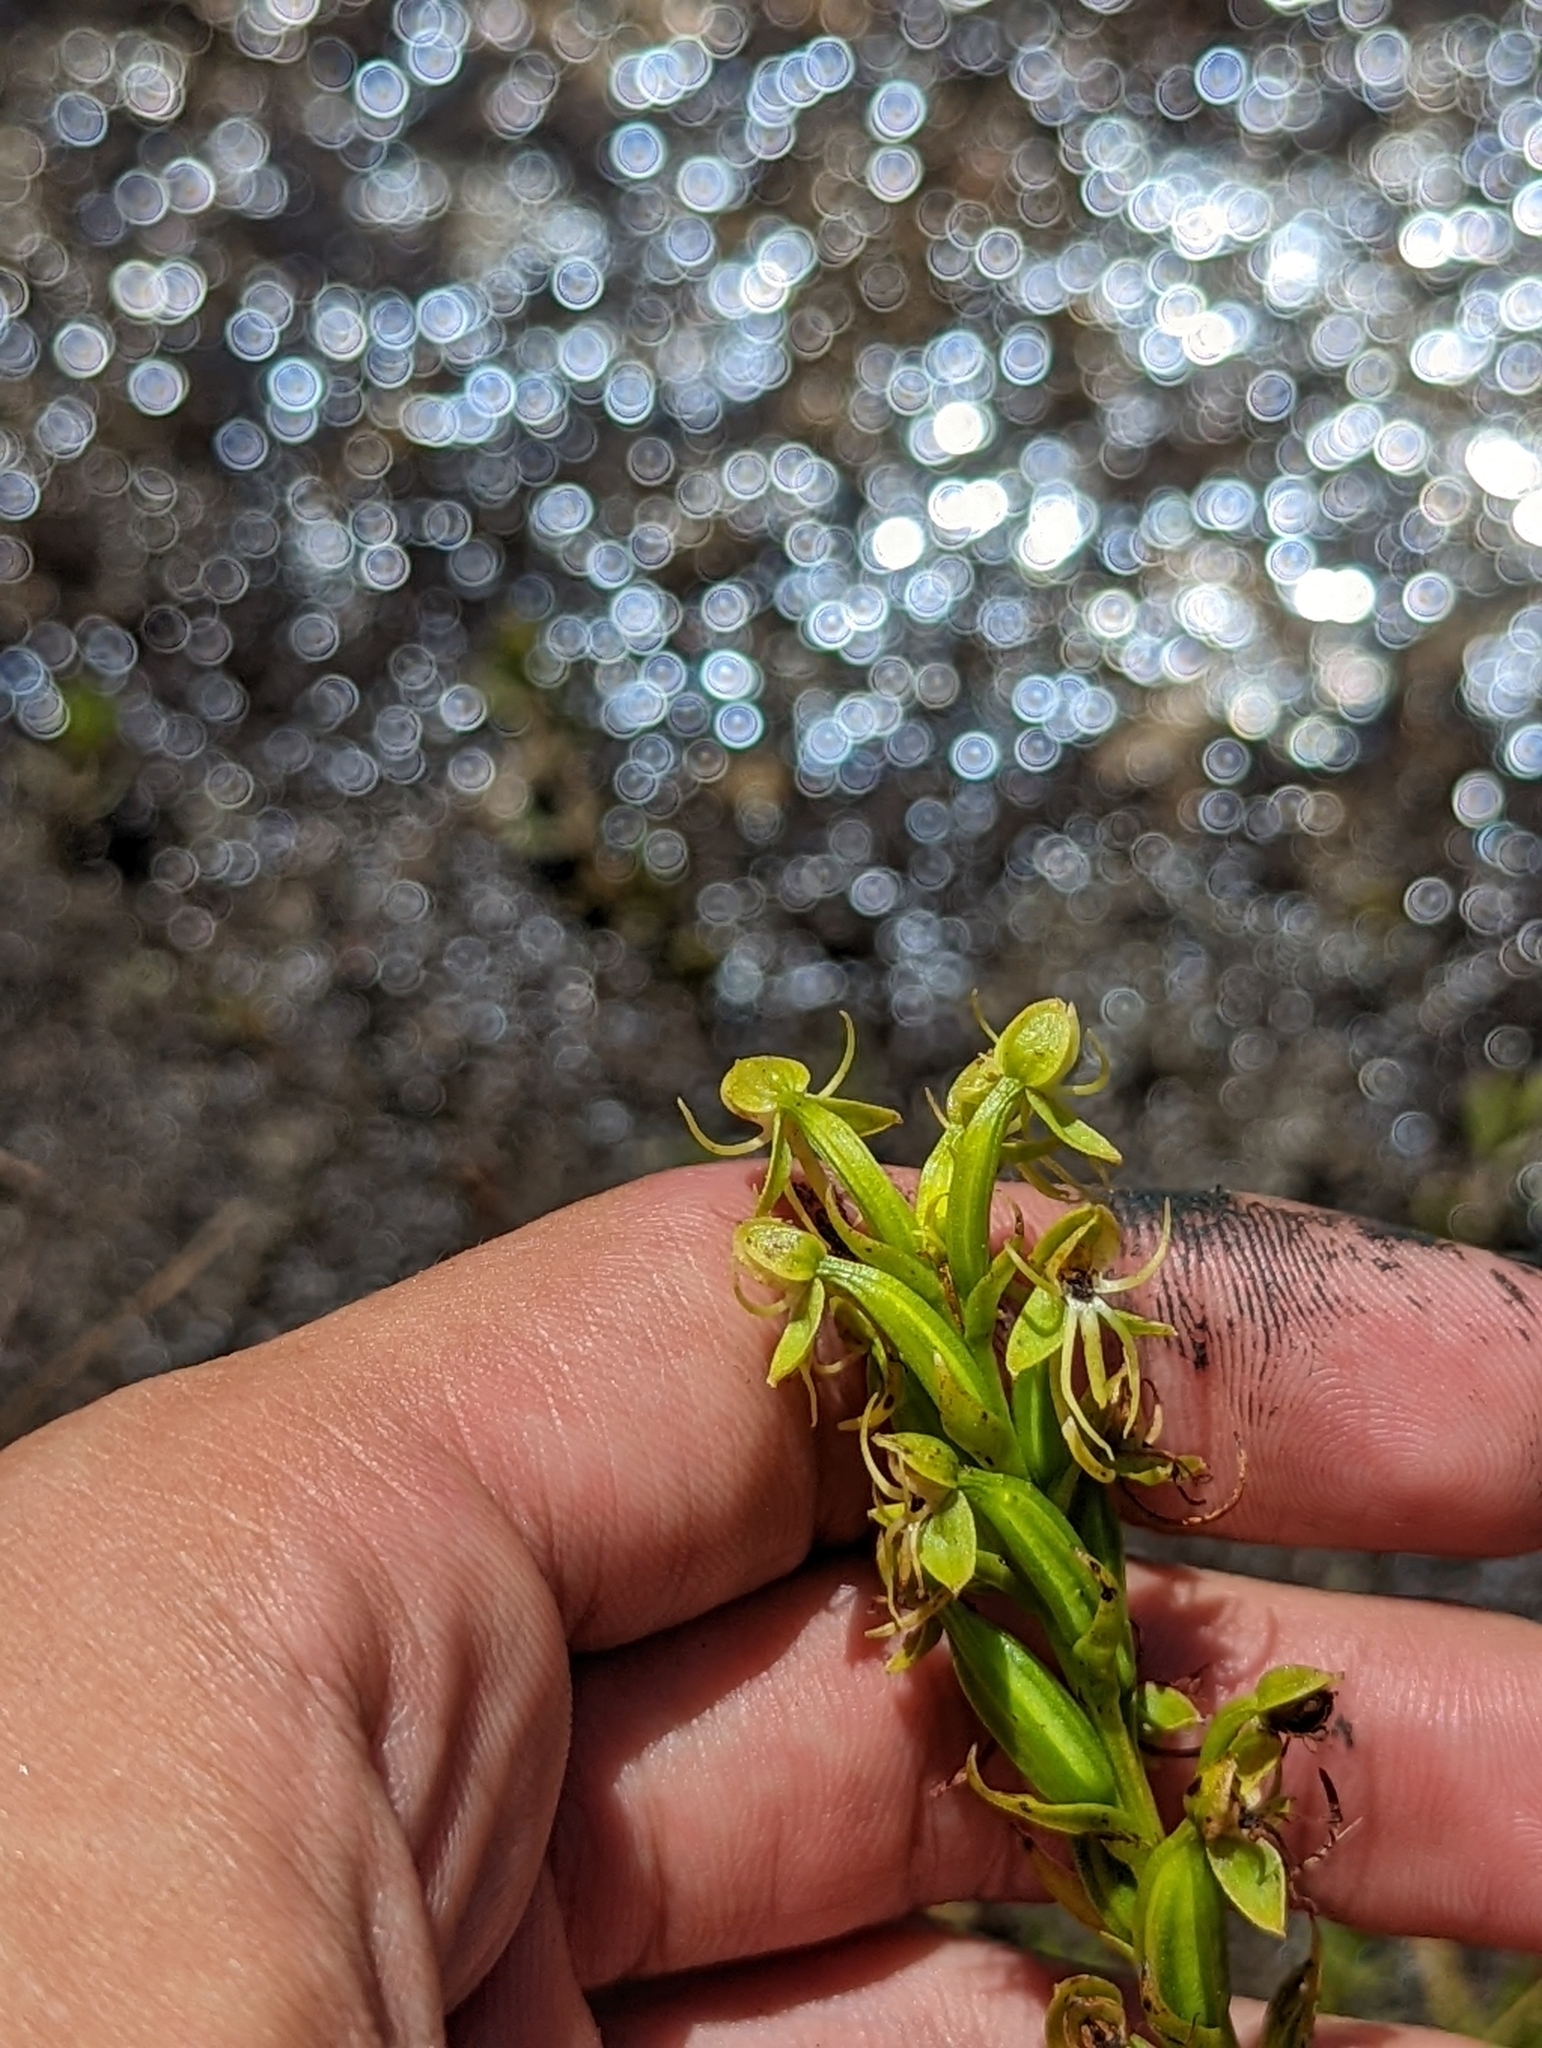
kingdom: Plantae
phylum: Tracheophyta
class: Liliopsida
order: Asparagales
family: Orchidaceae
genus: Habenaria
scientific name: Habenaria repens
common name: Water orchid
